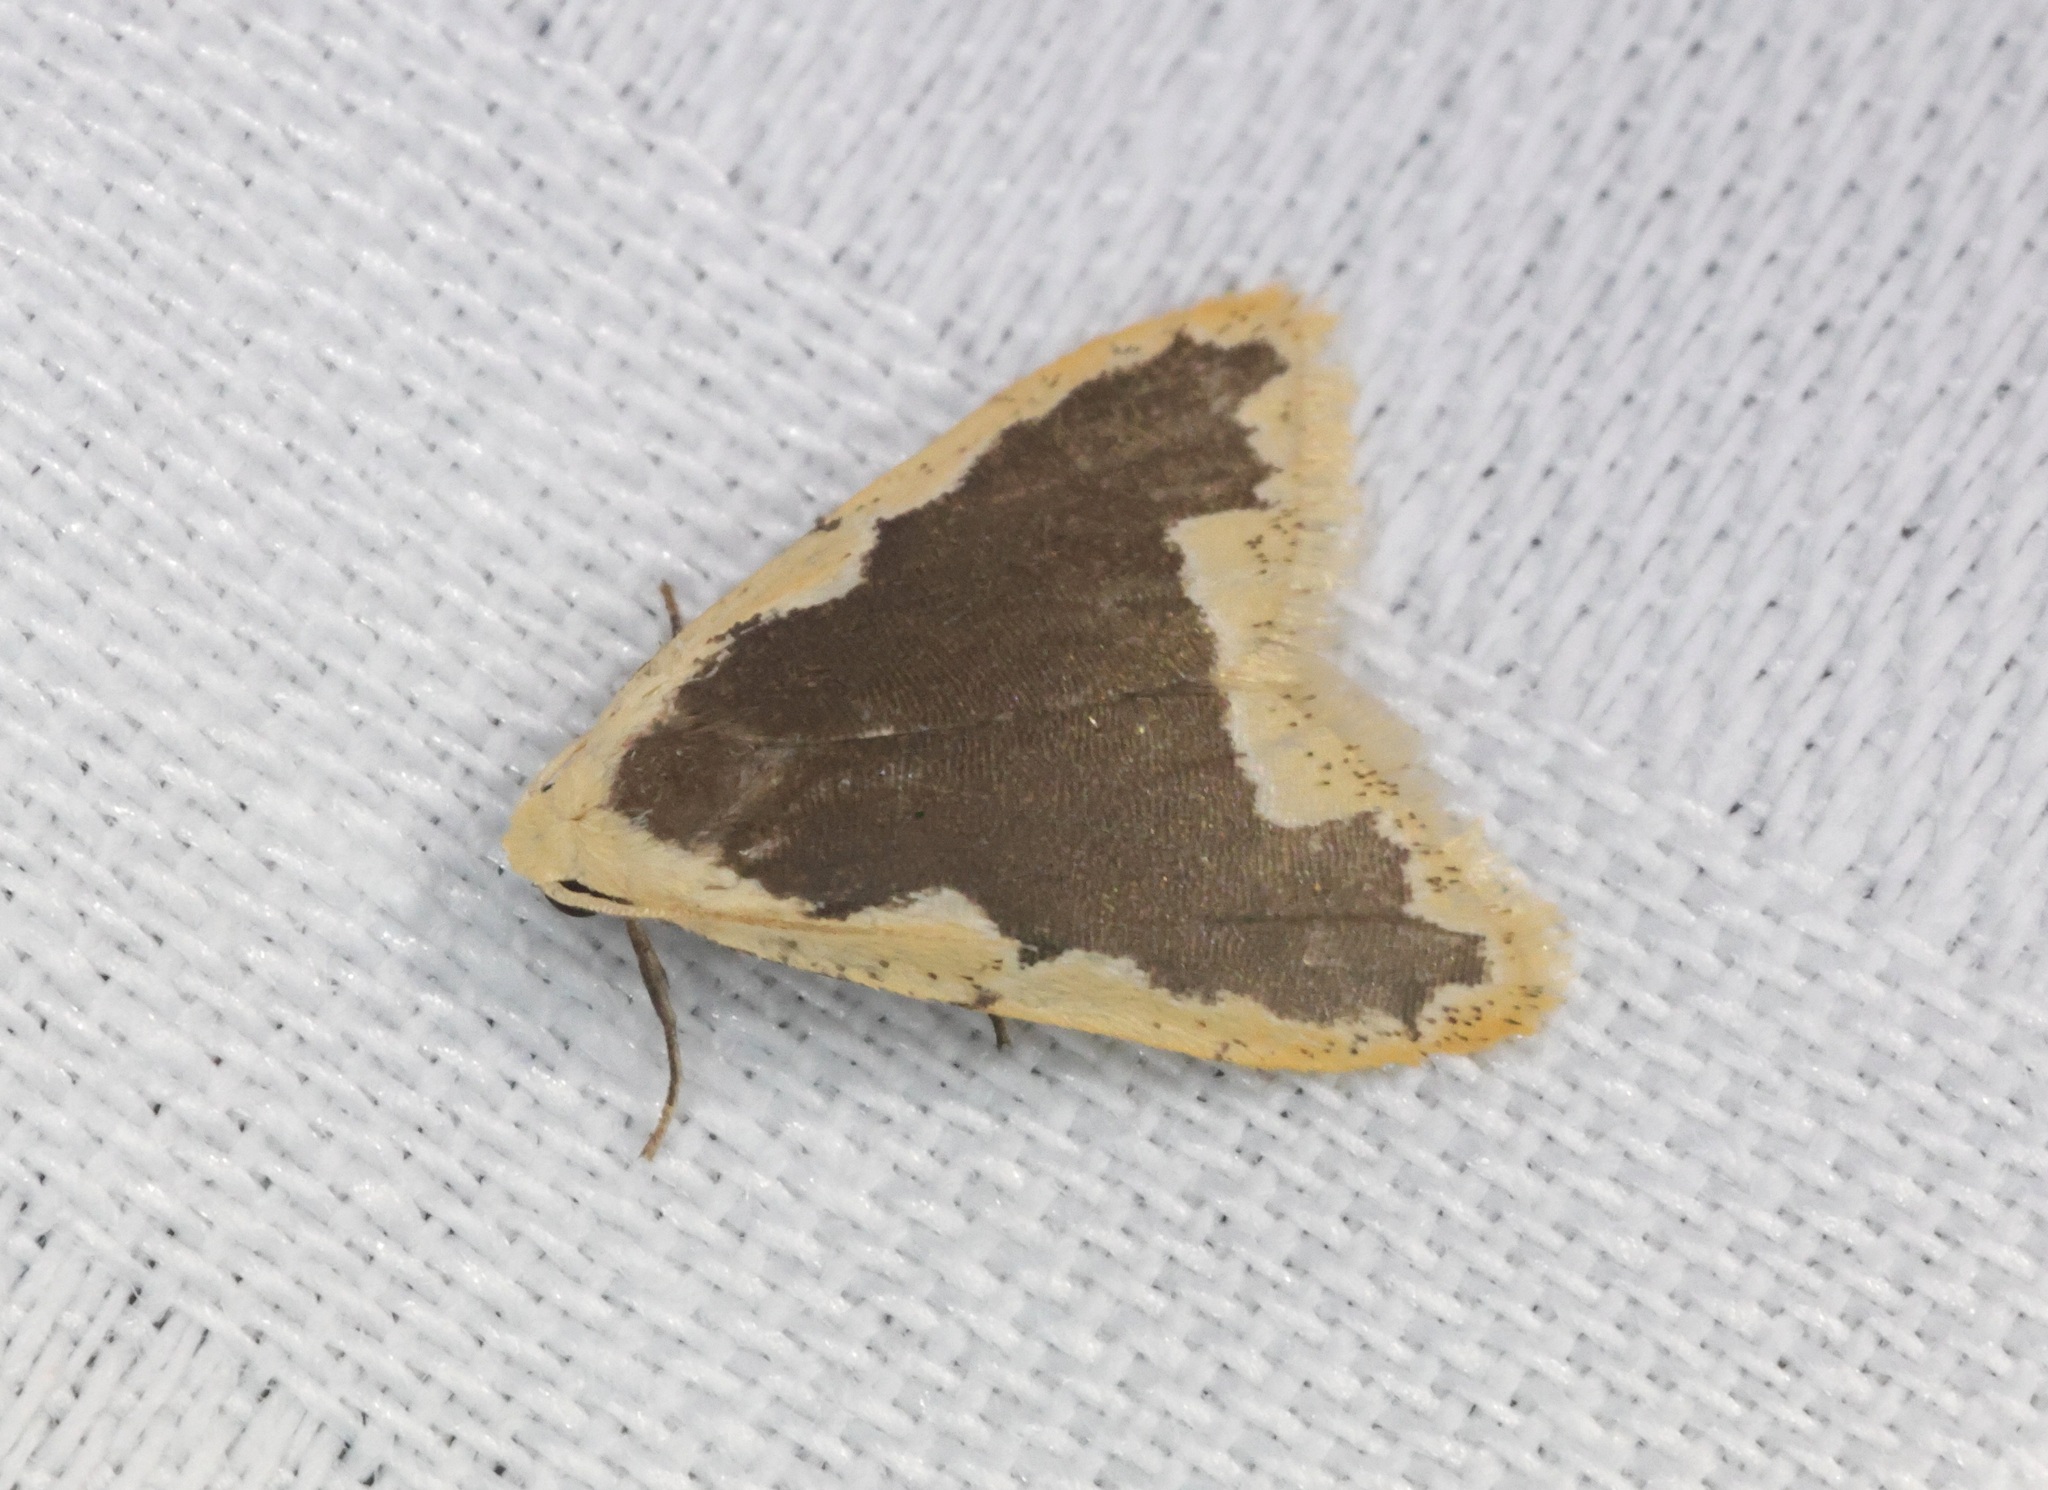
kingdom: Animalia
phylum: Arthropoda
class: Insecta
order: Lepidoptera
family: Erebidae
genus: Diduga
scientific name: Diduga flavicostata
